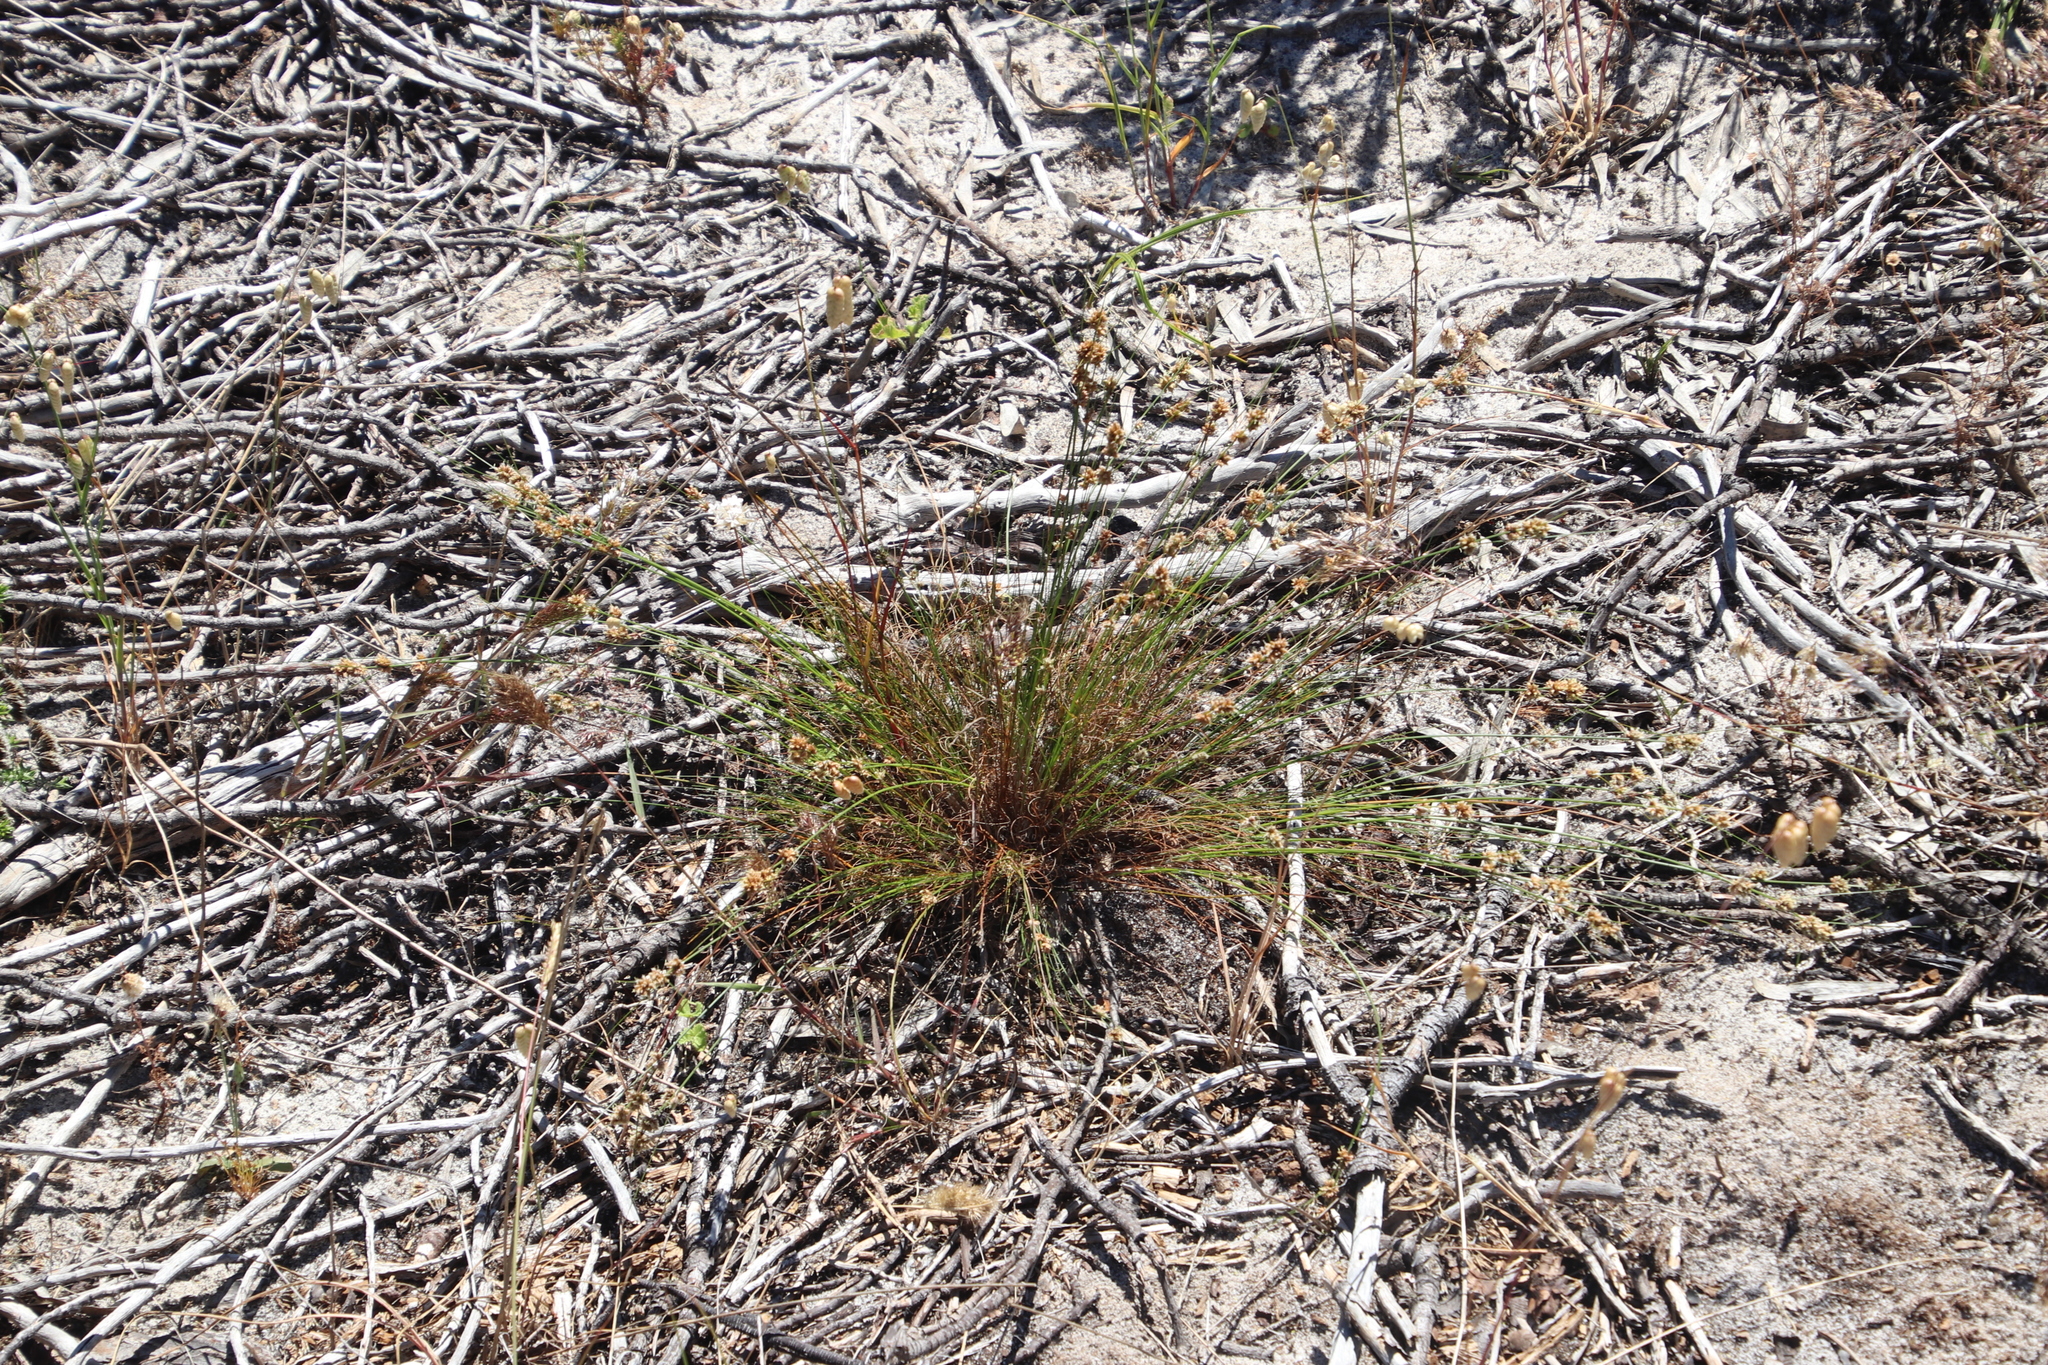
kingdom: Plantae
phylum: Tracheophyta
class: Liliopsida
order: Poales
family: Cyperaceae
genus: Ficinia
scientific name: Ficinia bulbosa
